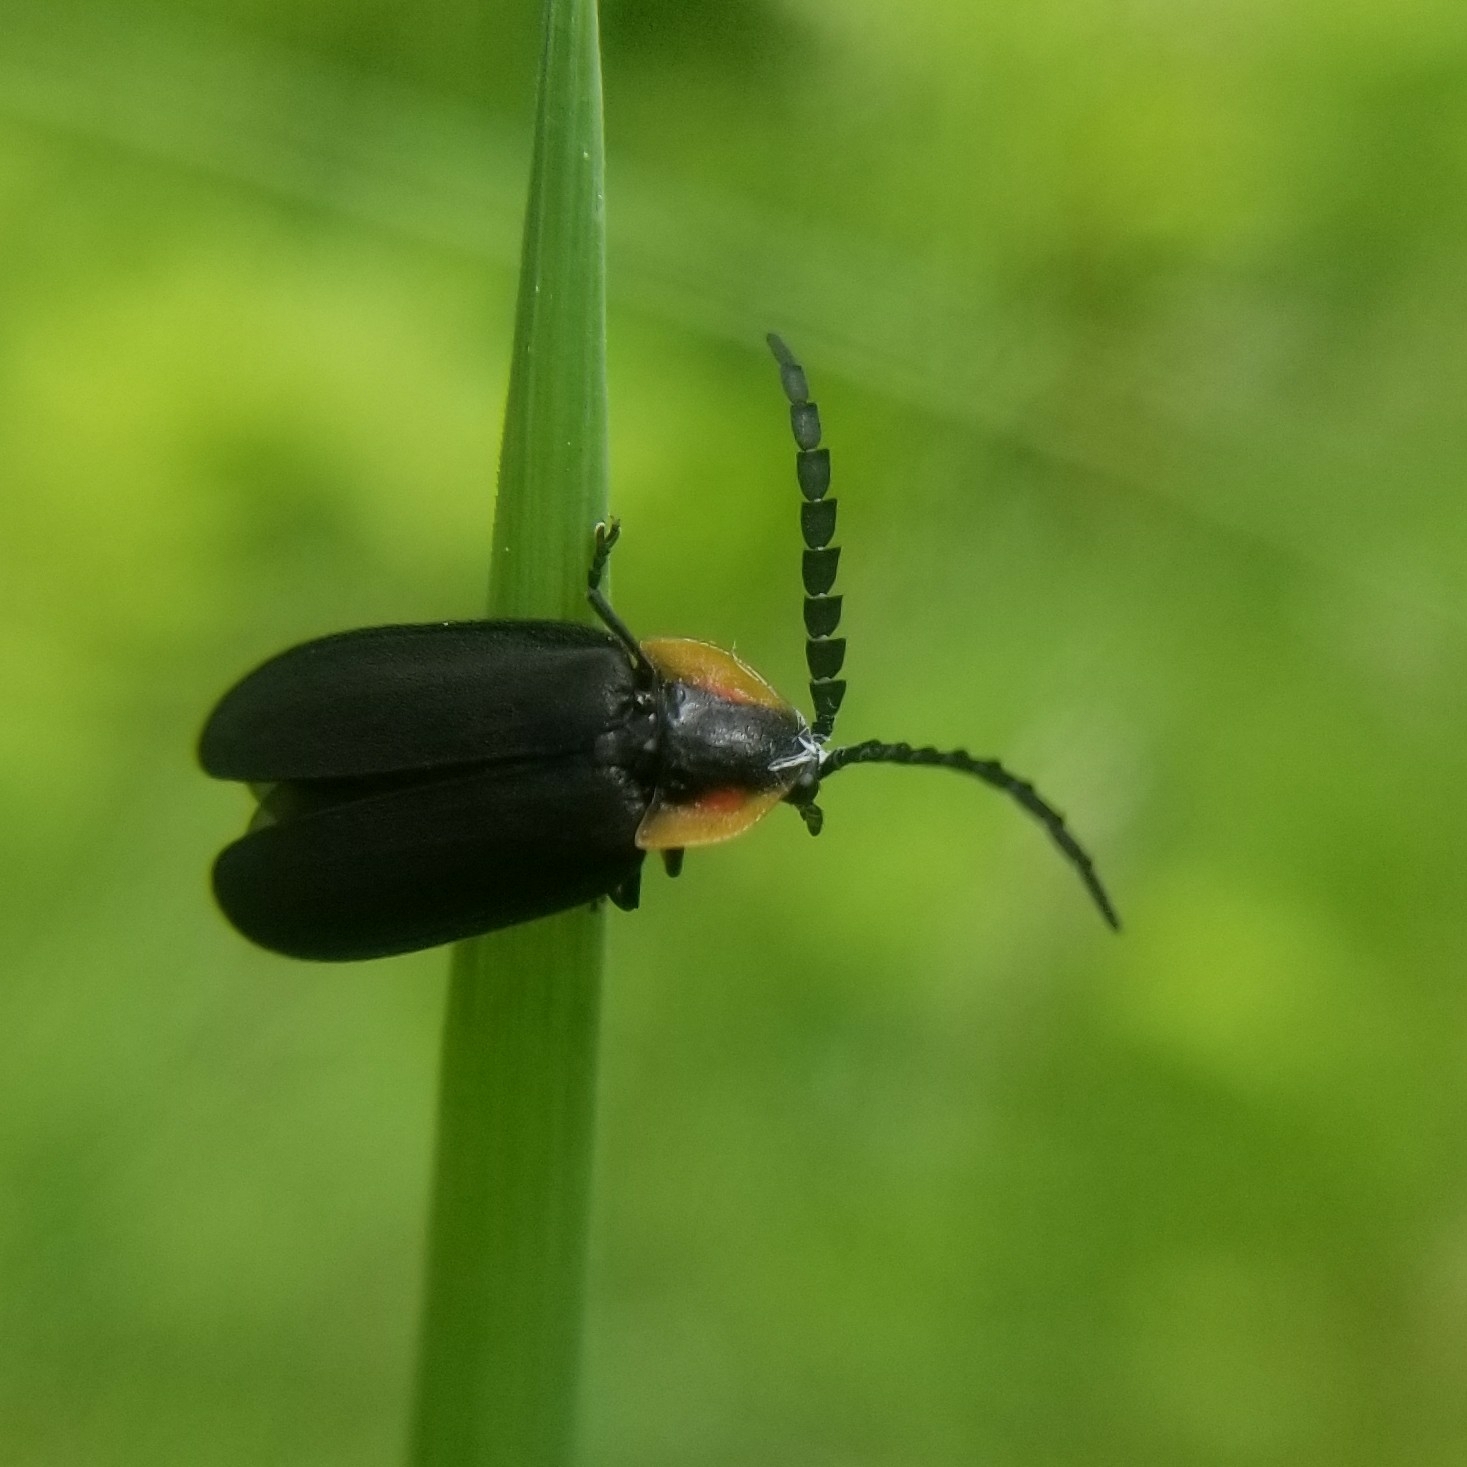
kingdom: Animalia
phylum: Arthropoda
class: Insecta
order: Coleoptera
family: Lampyridae
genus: Lucidota
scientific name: Lucidota atra
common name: Black firefly
